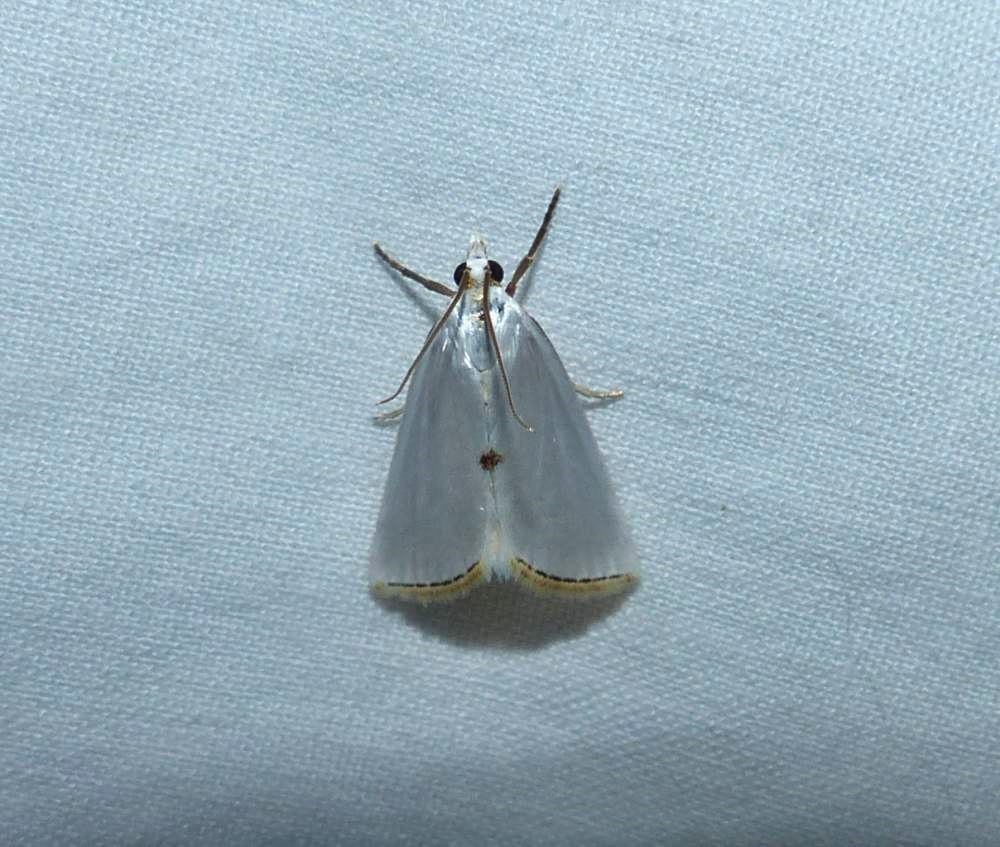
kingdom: Animalia
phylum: Arthropoda
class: Insecta
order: Lepidoptera
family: Crambidae
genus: Argyria
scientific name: Argyria nivalis
